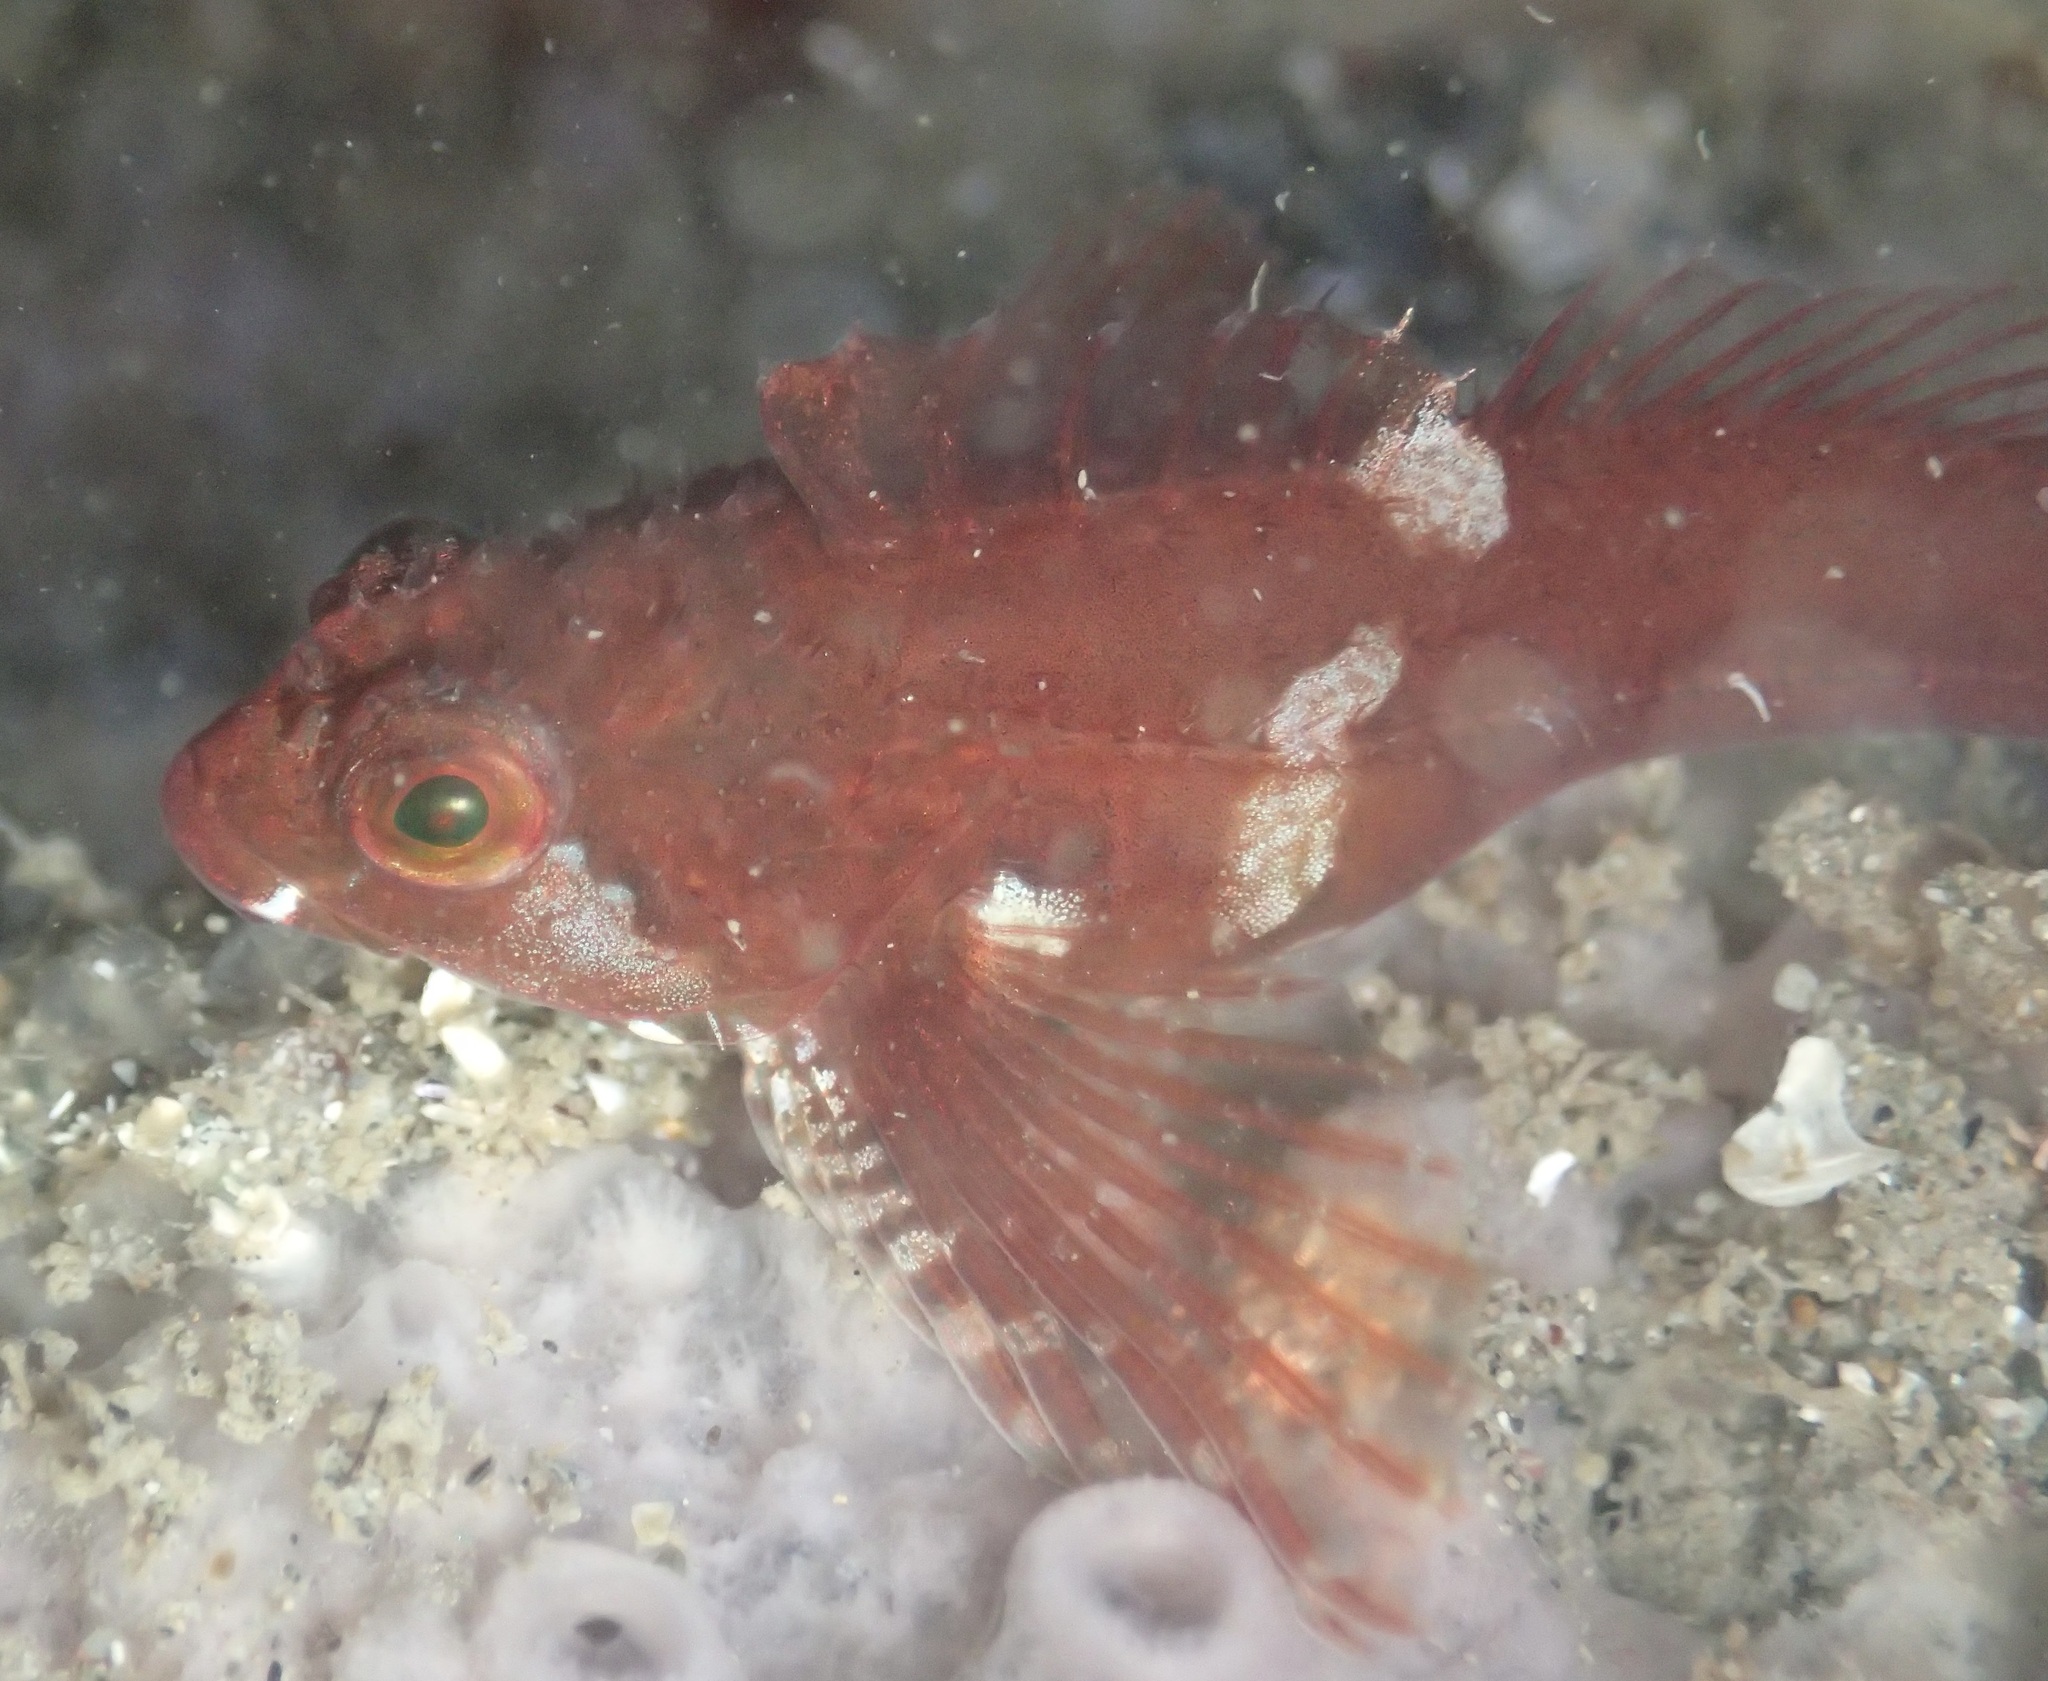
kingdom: Animalia
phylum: Chordata
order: Scorpaeniformes
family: Cottidae
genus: Oligocottus
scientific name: Oligocottus snyderi
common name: Fluffy sculpin
